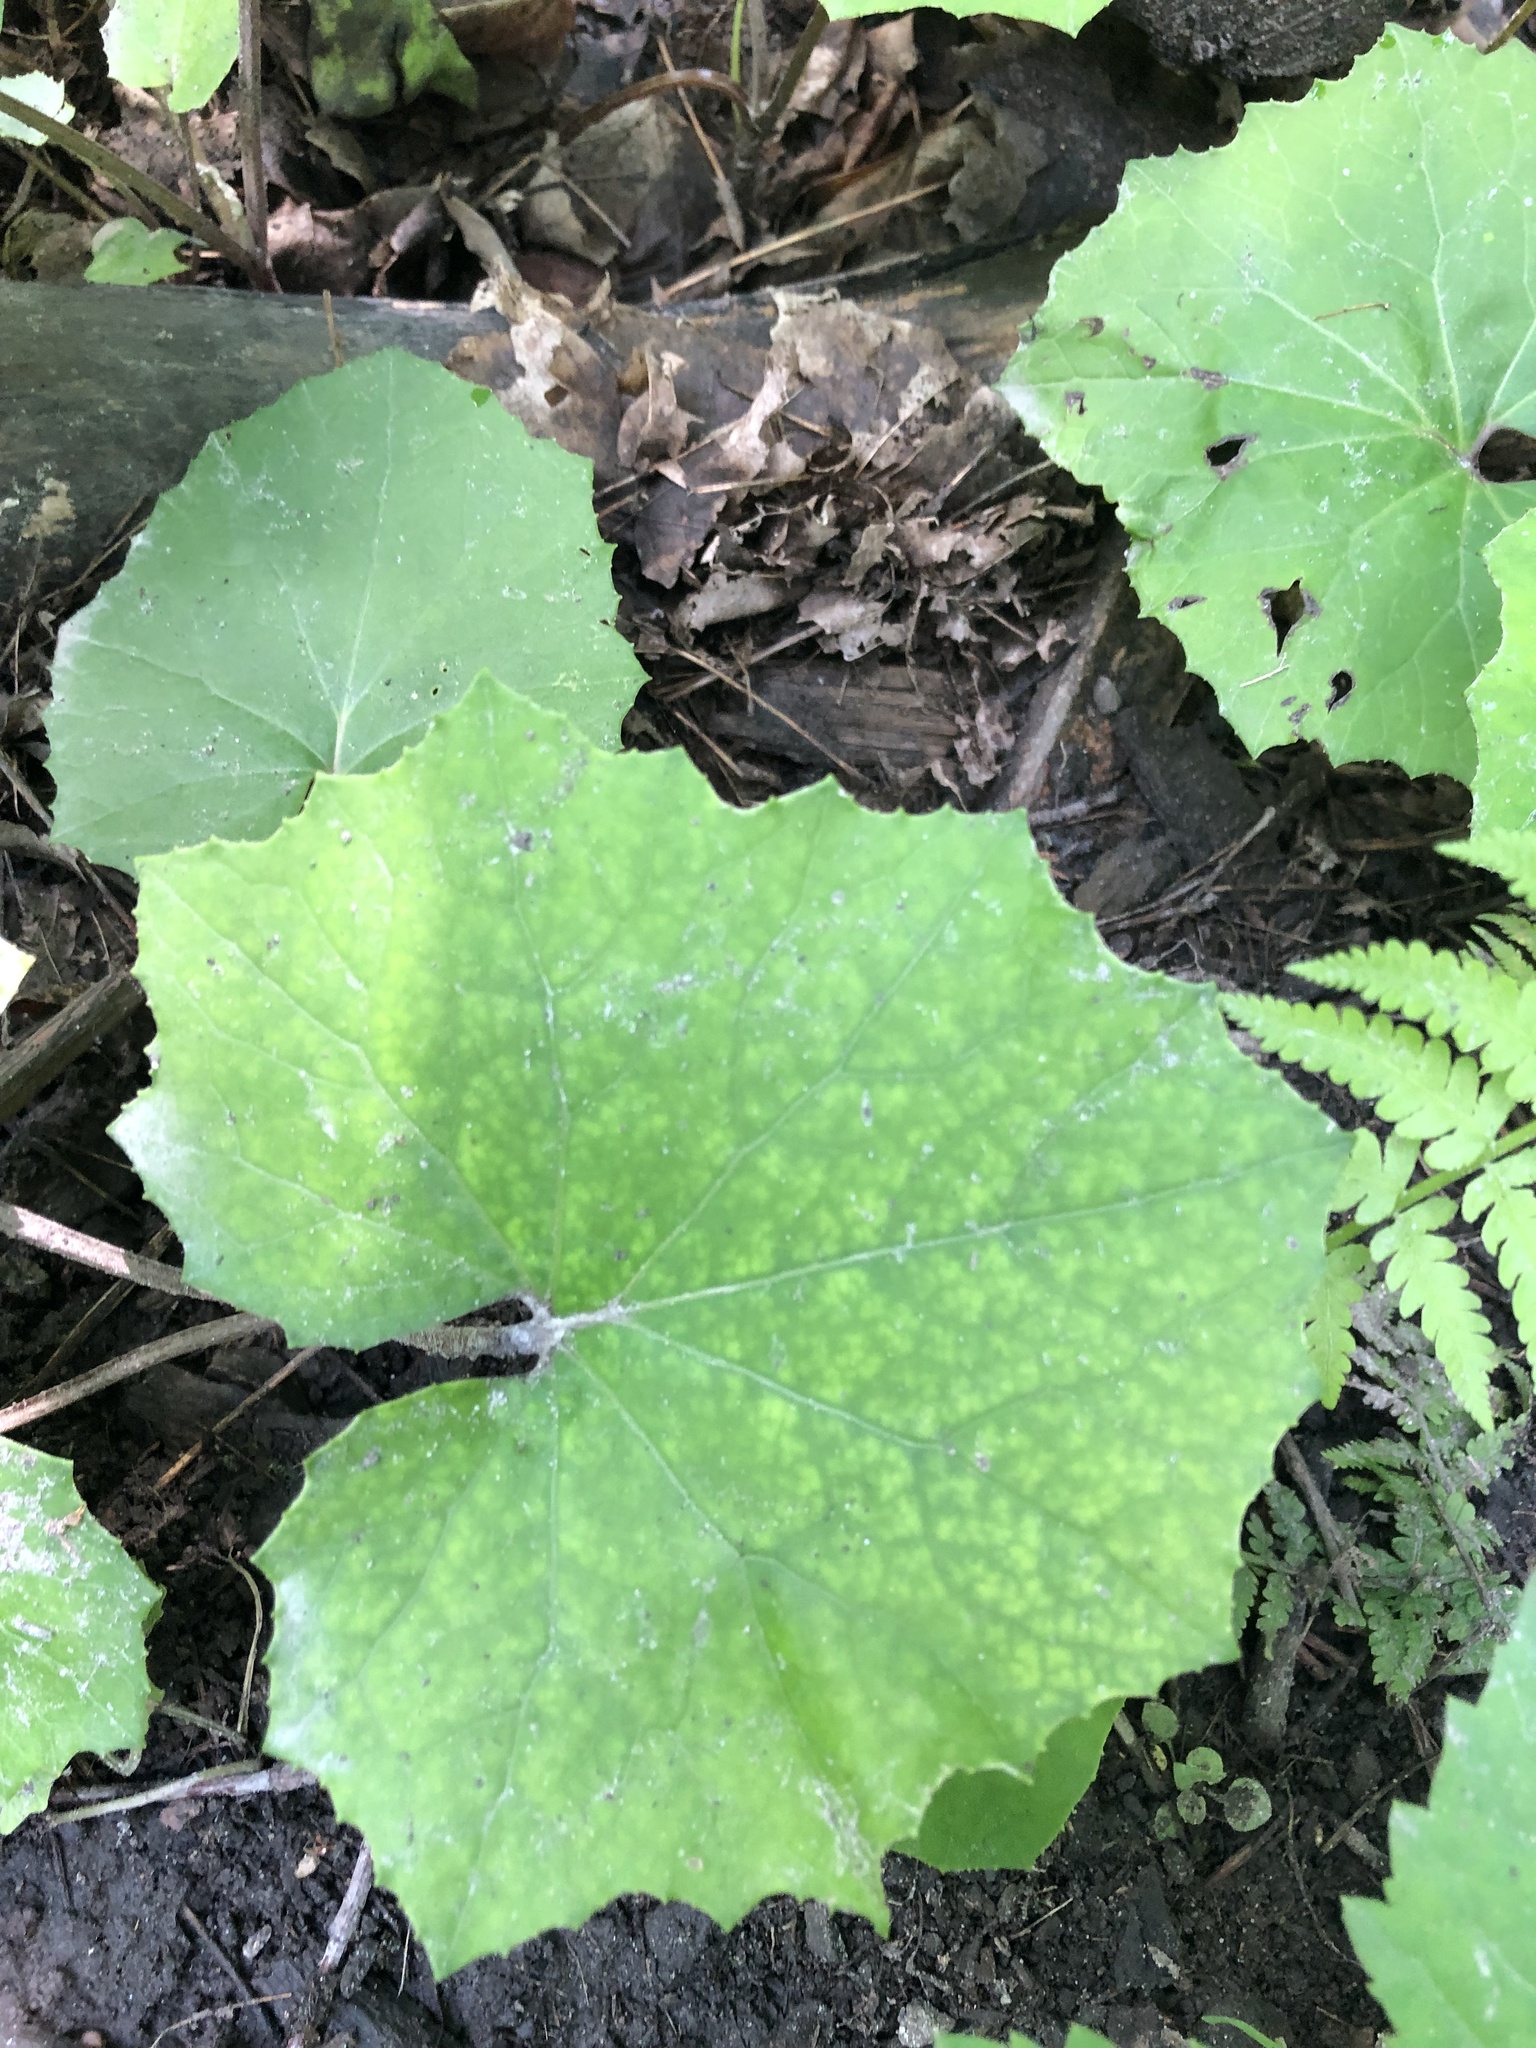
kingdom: Plantae
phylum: Tracheophyta
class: Magnoliopsida
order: Asterales
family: Asteraceae
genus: Tussilago
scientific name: Tussilago farfara
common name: Coltsfoot
